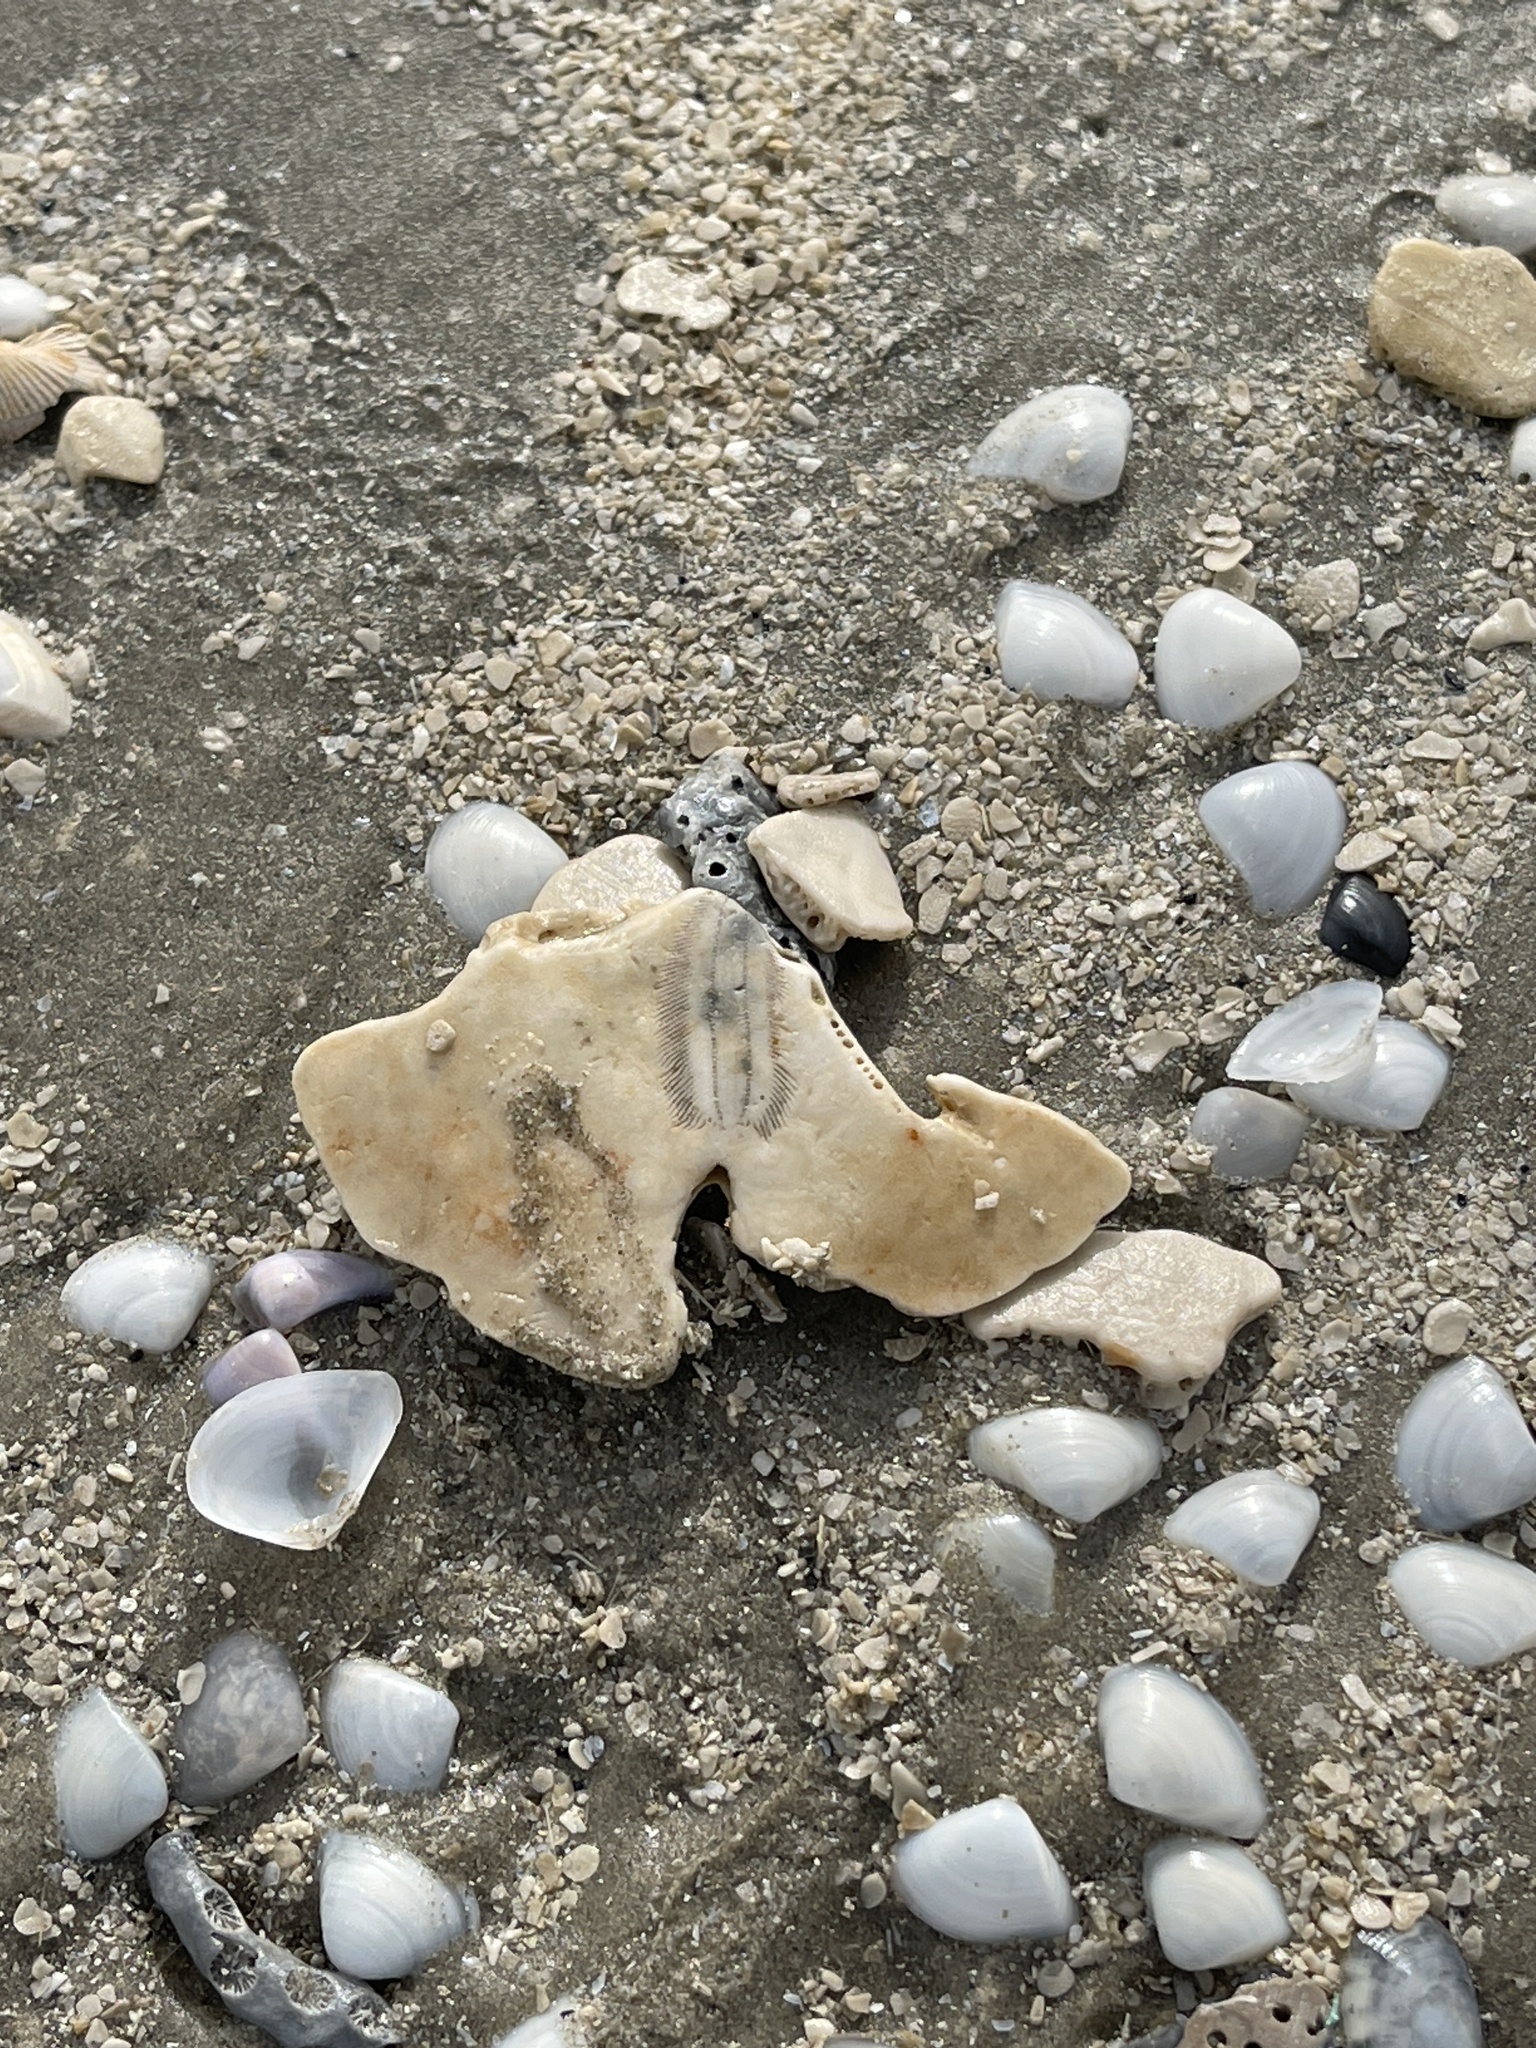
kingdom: Animalia
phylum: Echinodermata
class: Echinoidea
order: Echinolampadacea
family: Mellitidae
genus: Mellita
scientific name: Mellita quinquiesperforata
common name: Sand dollar
